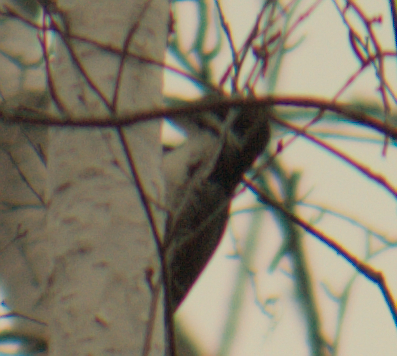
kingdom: Animalia
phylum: Chordata
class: Aves
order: Piciformes
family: Picidae
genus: Picoides
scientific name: Picoides arcticus
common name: Black-backed woodpecker
